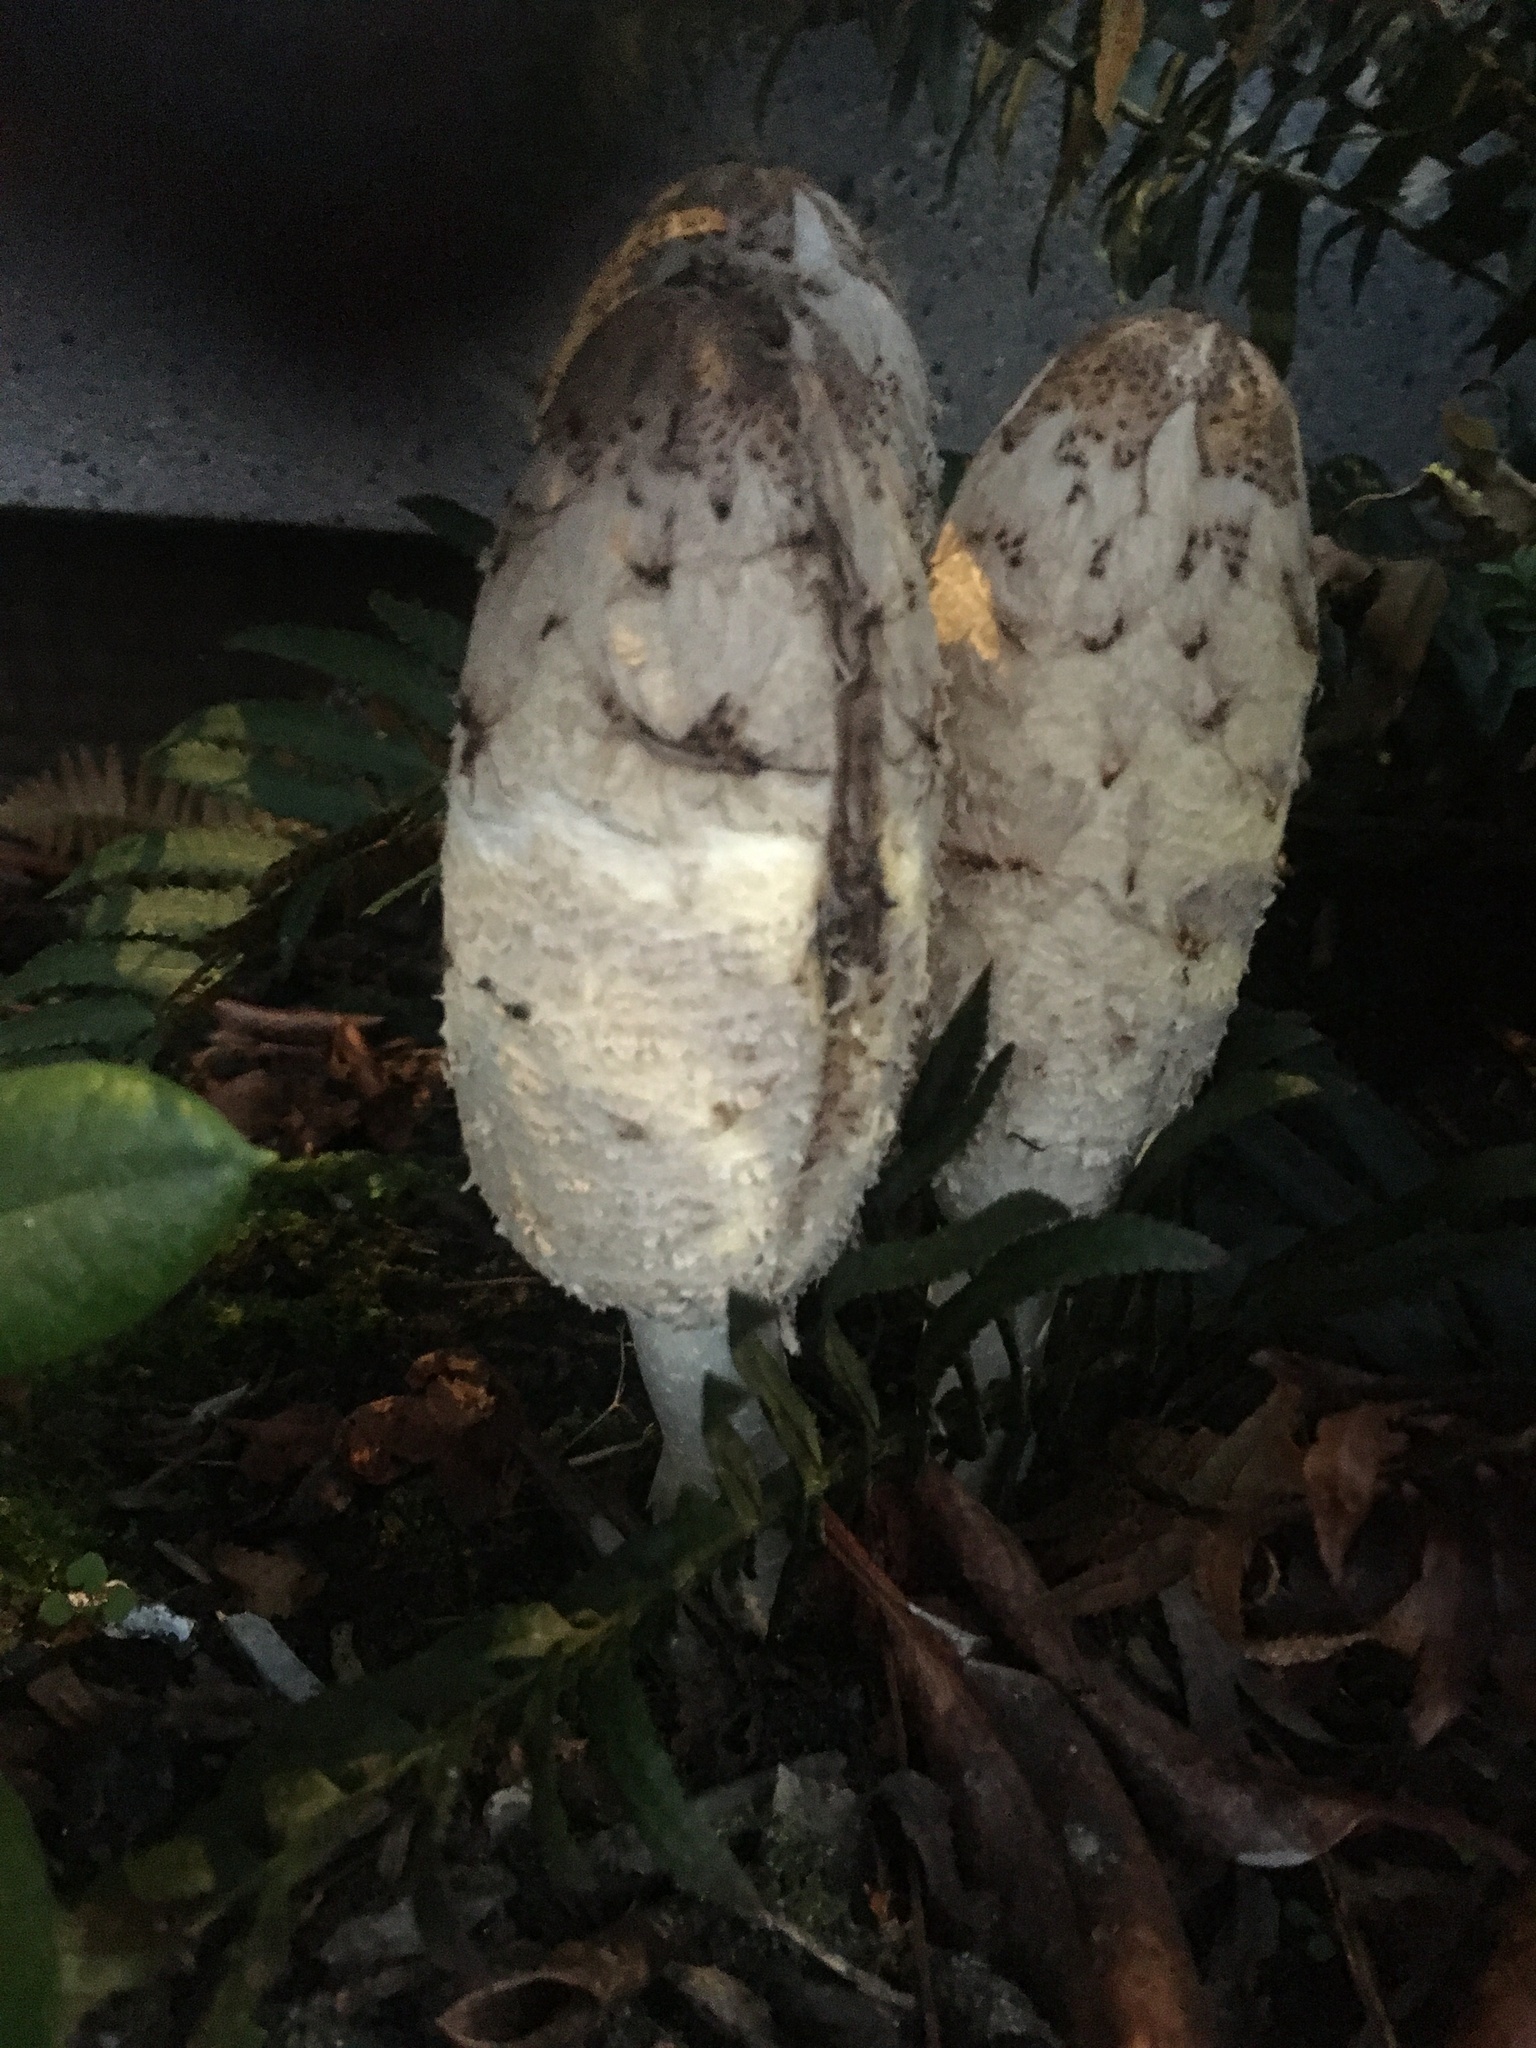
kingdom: Fungi
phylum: Basidiomycota
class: Agaricomycetes
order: Agaricales
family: Agaricaceae
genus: Coprinus
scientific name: Coprinus comatus
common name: Lawyer's wig
